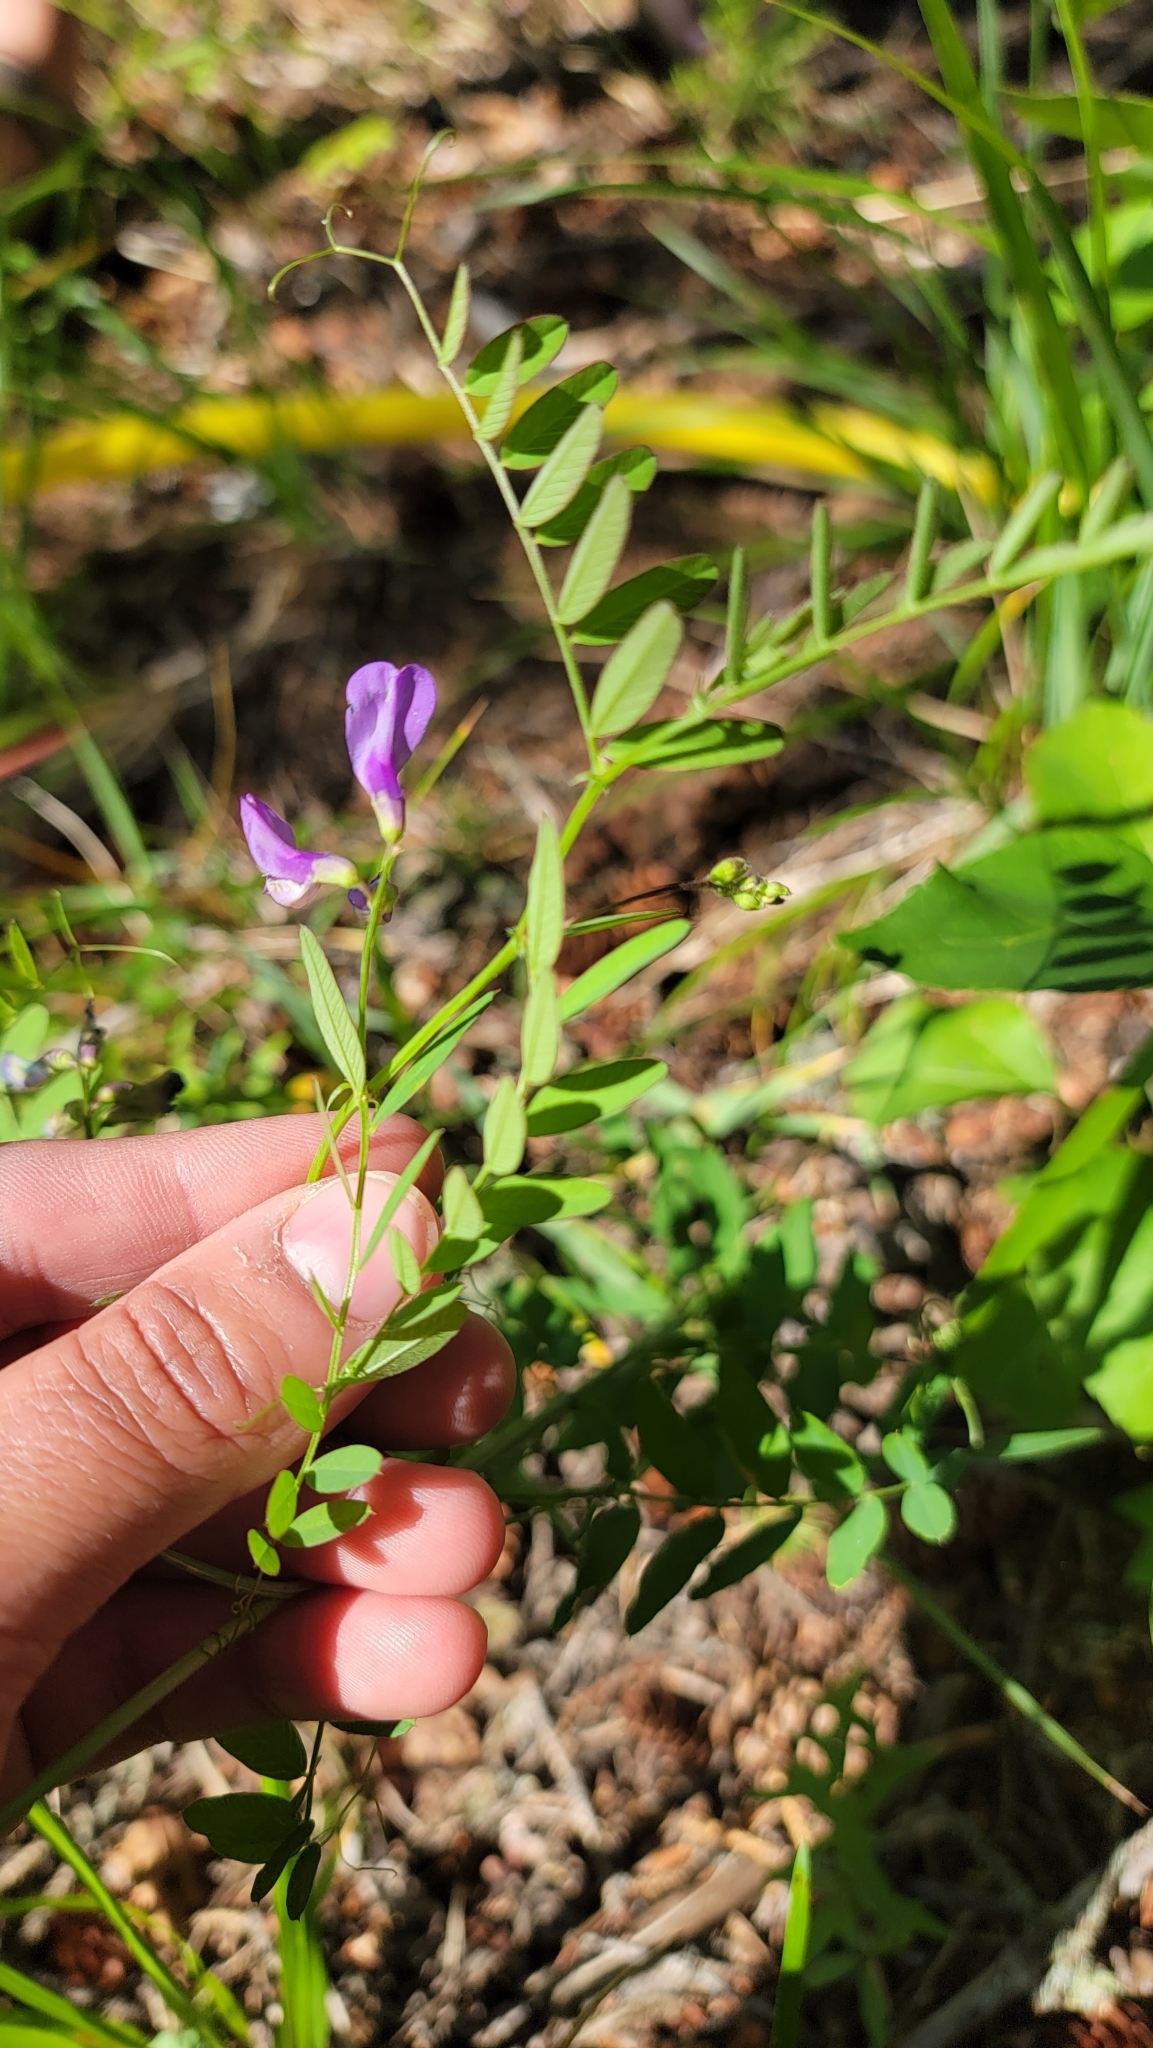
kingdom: Plantae
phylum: Tracheophyta
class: Magnoliopsida
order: Fabales
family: Fabaceae
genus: Vicia
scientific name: Vicia americana
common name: American vetch
